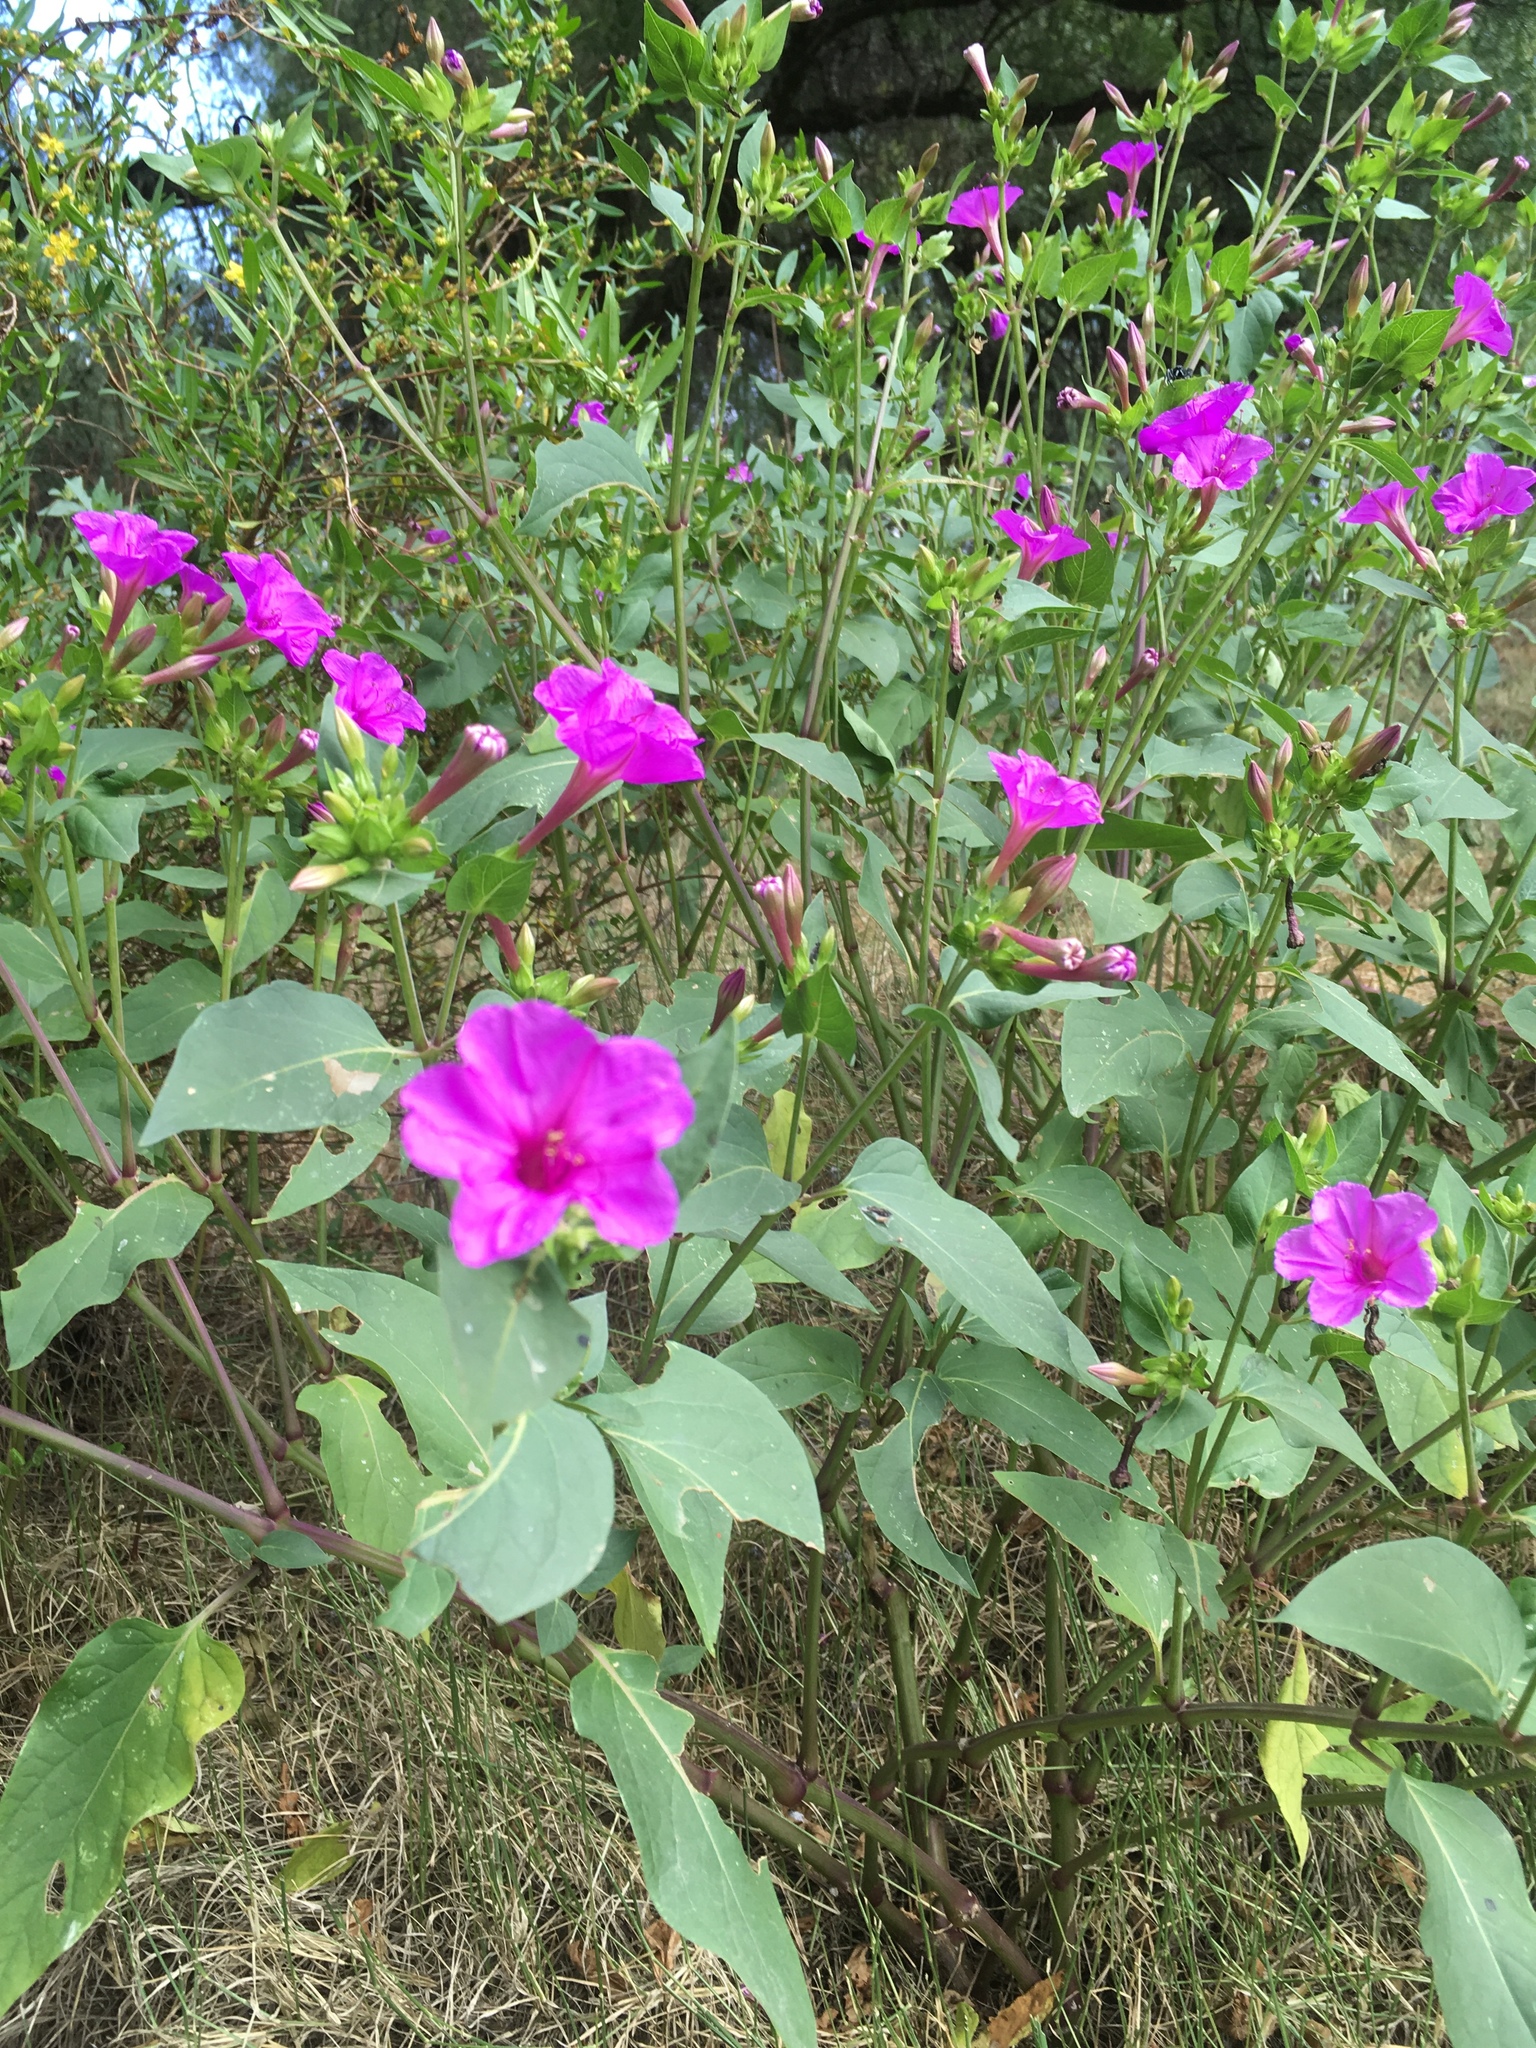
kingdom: Plantae
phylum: Tracheophyta
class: Magnoliopsida
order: Caryophyllales
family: Nyctaginaceae
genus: Mirabilis
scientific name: Mirabilis jalapa
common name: Marvel-of-peru
